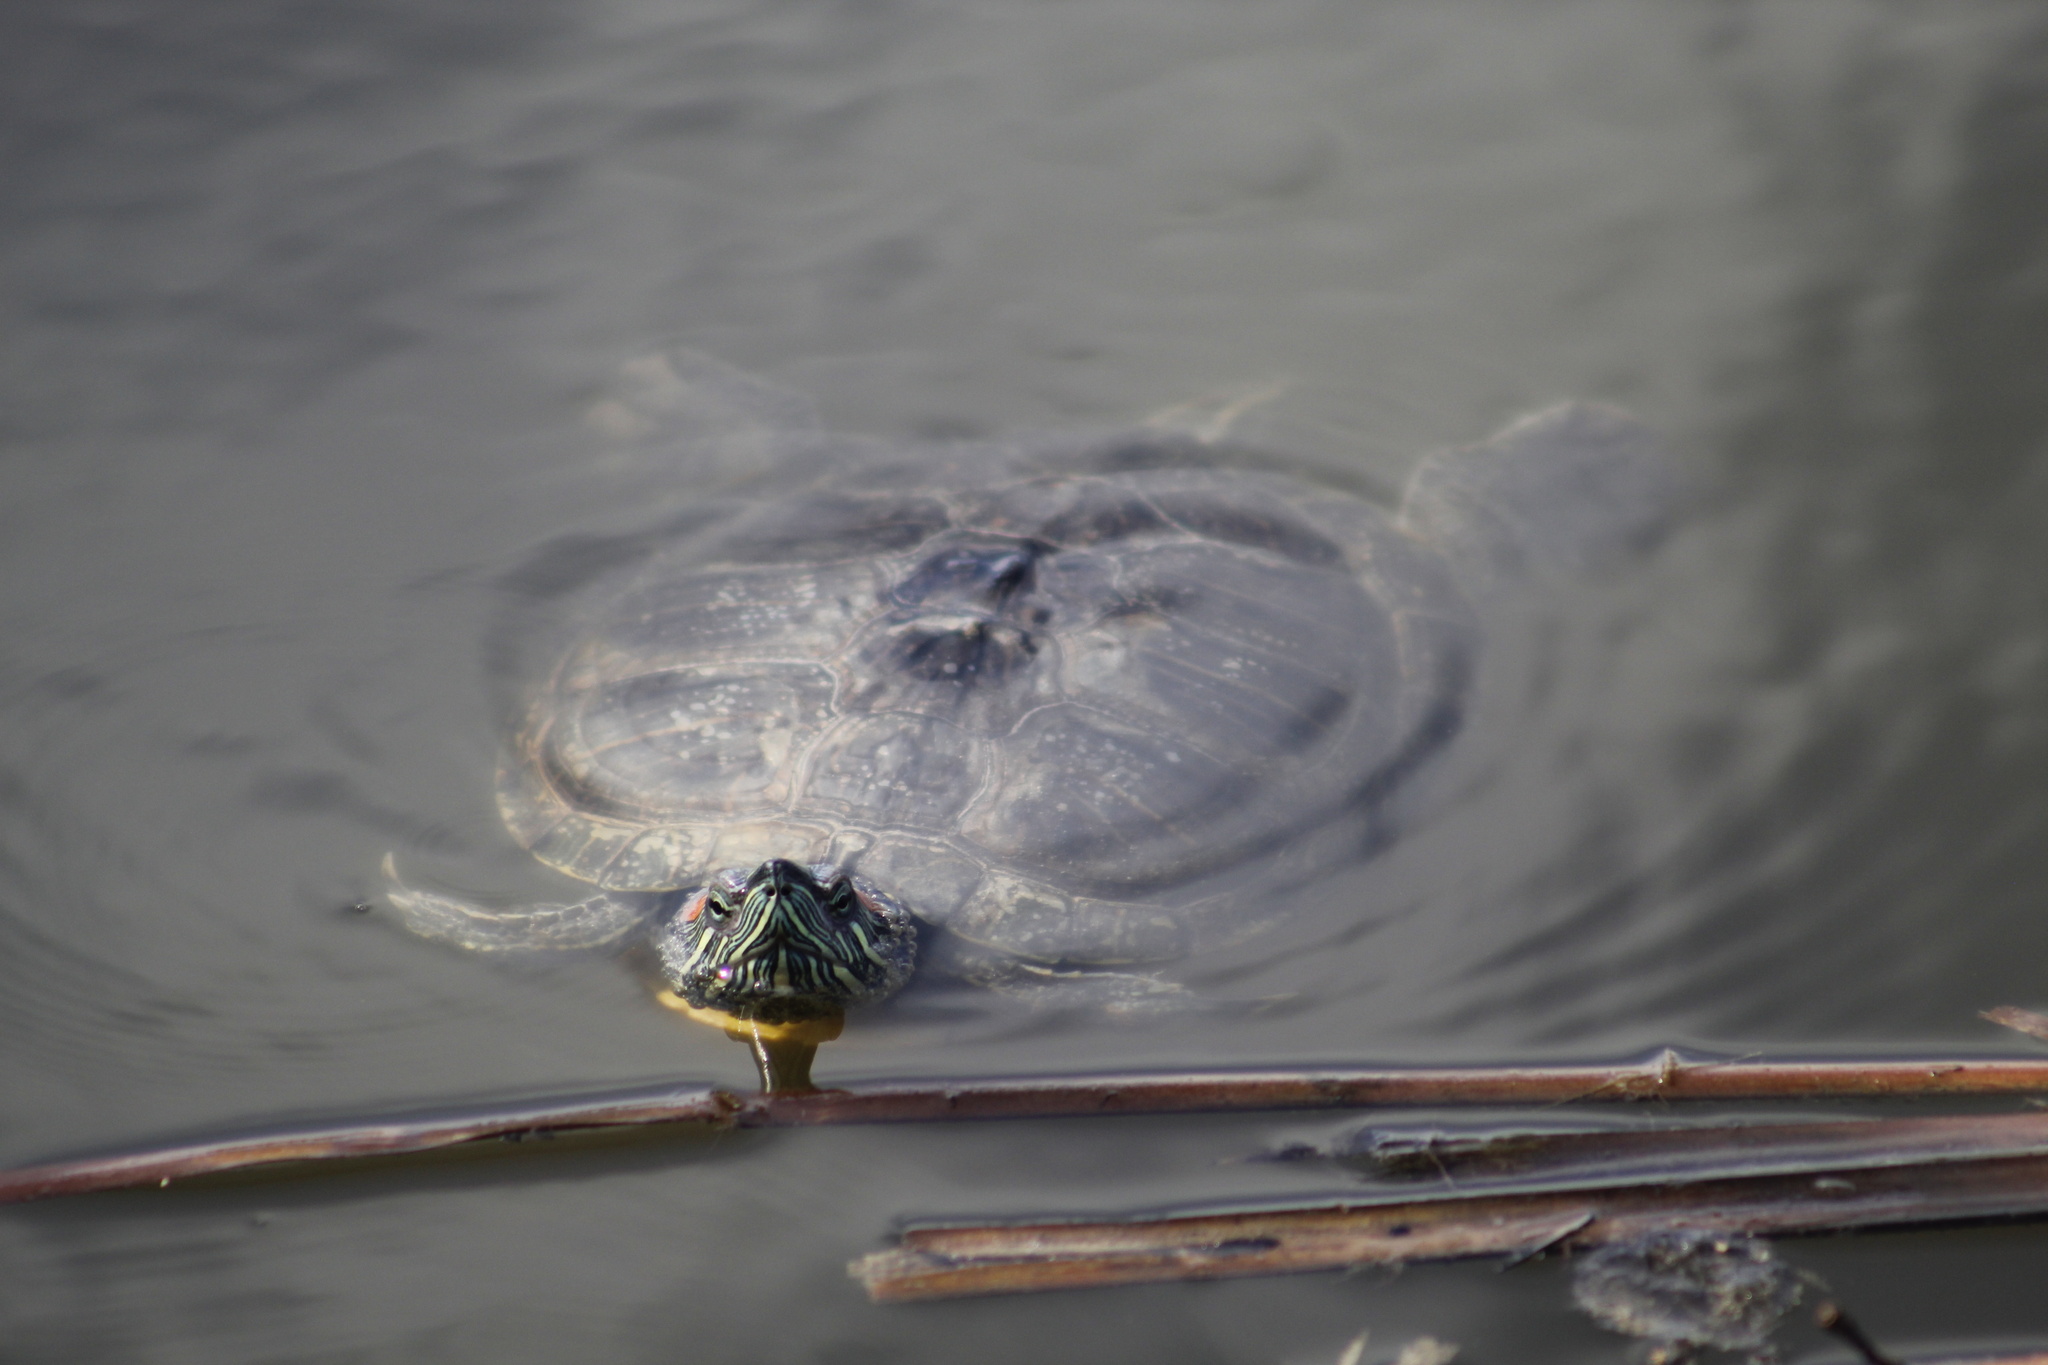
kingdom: Animalia
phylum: Chordata
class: Testudines
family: Emydidae
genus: Trachemys
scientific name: Trachemys scripta
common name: Slider
